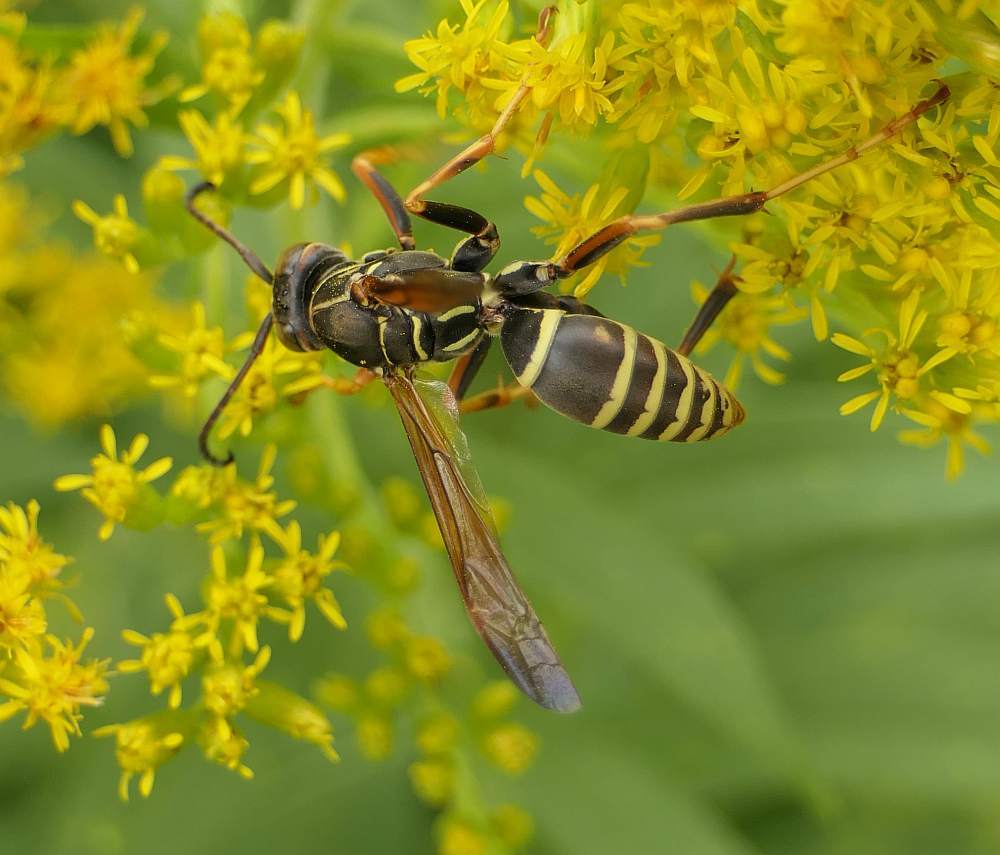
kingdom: Animalia
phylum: Arthropoda
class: Insecta
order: Hymenoptera
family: Eumenidae
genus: Polistes
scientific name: Polistes fuscatus
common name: Dark paper wasp
